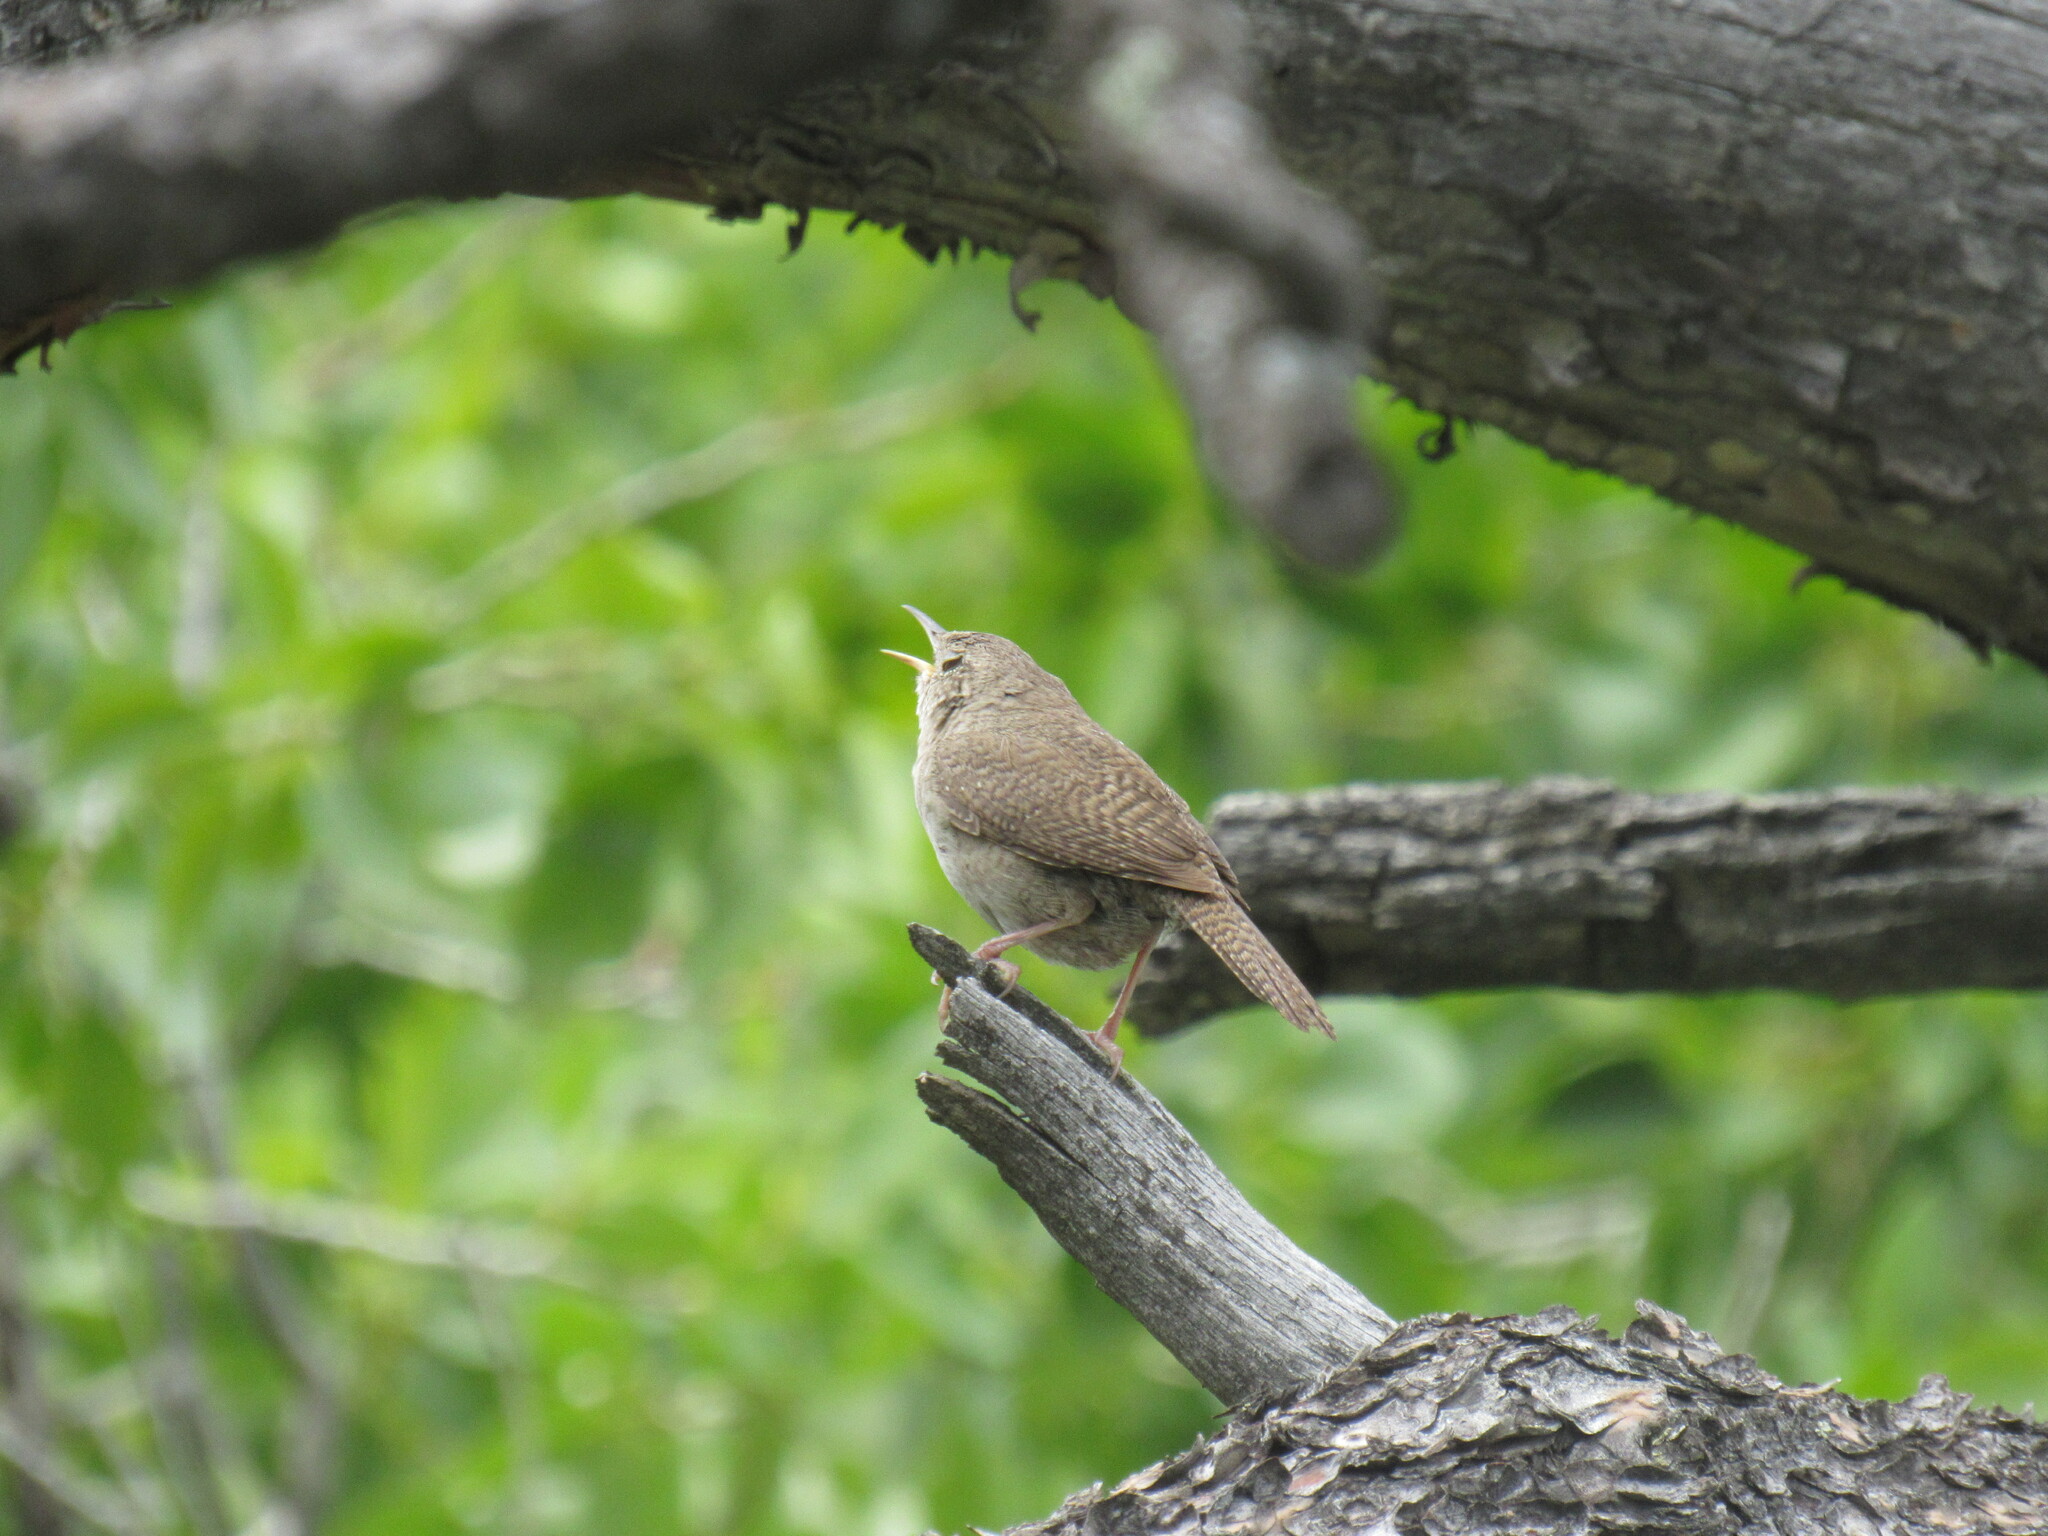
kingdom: Animalia
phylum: Chordata
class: Aves
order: Passeriformes
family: Troglodytidae
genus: Troglodytes
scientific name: Troglodytes aedon
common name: House wren
